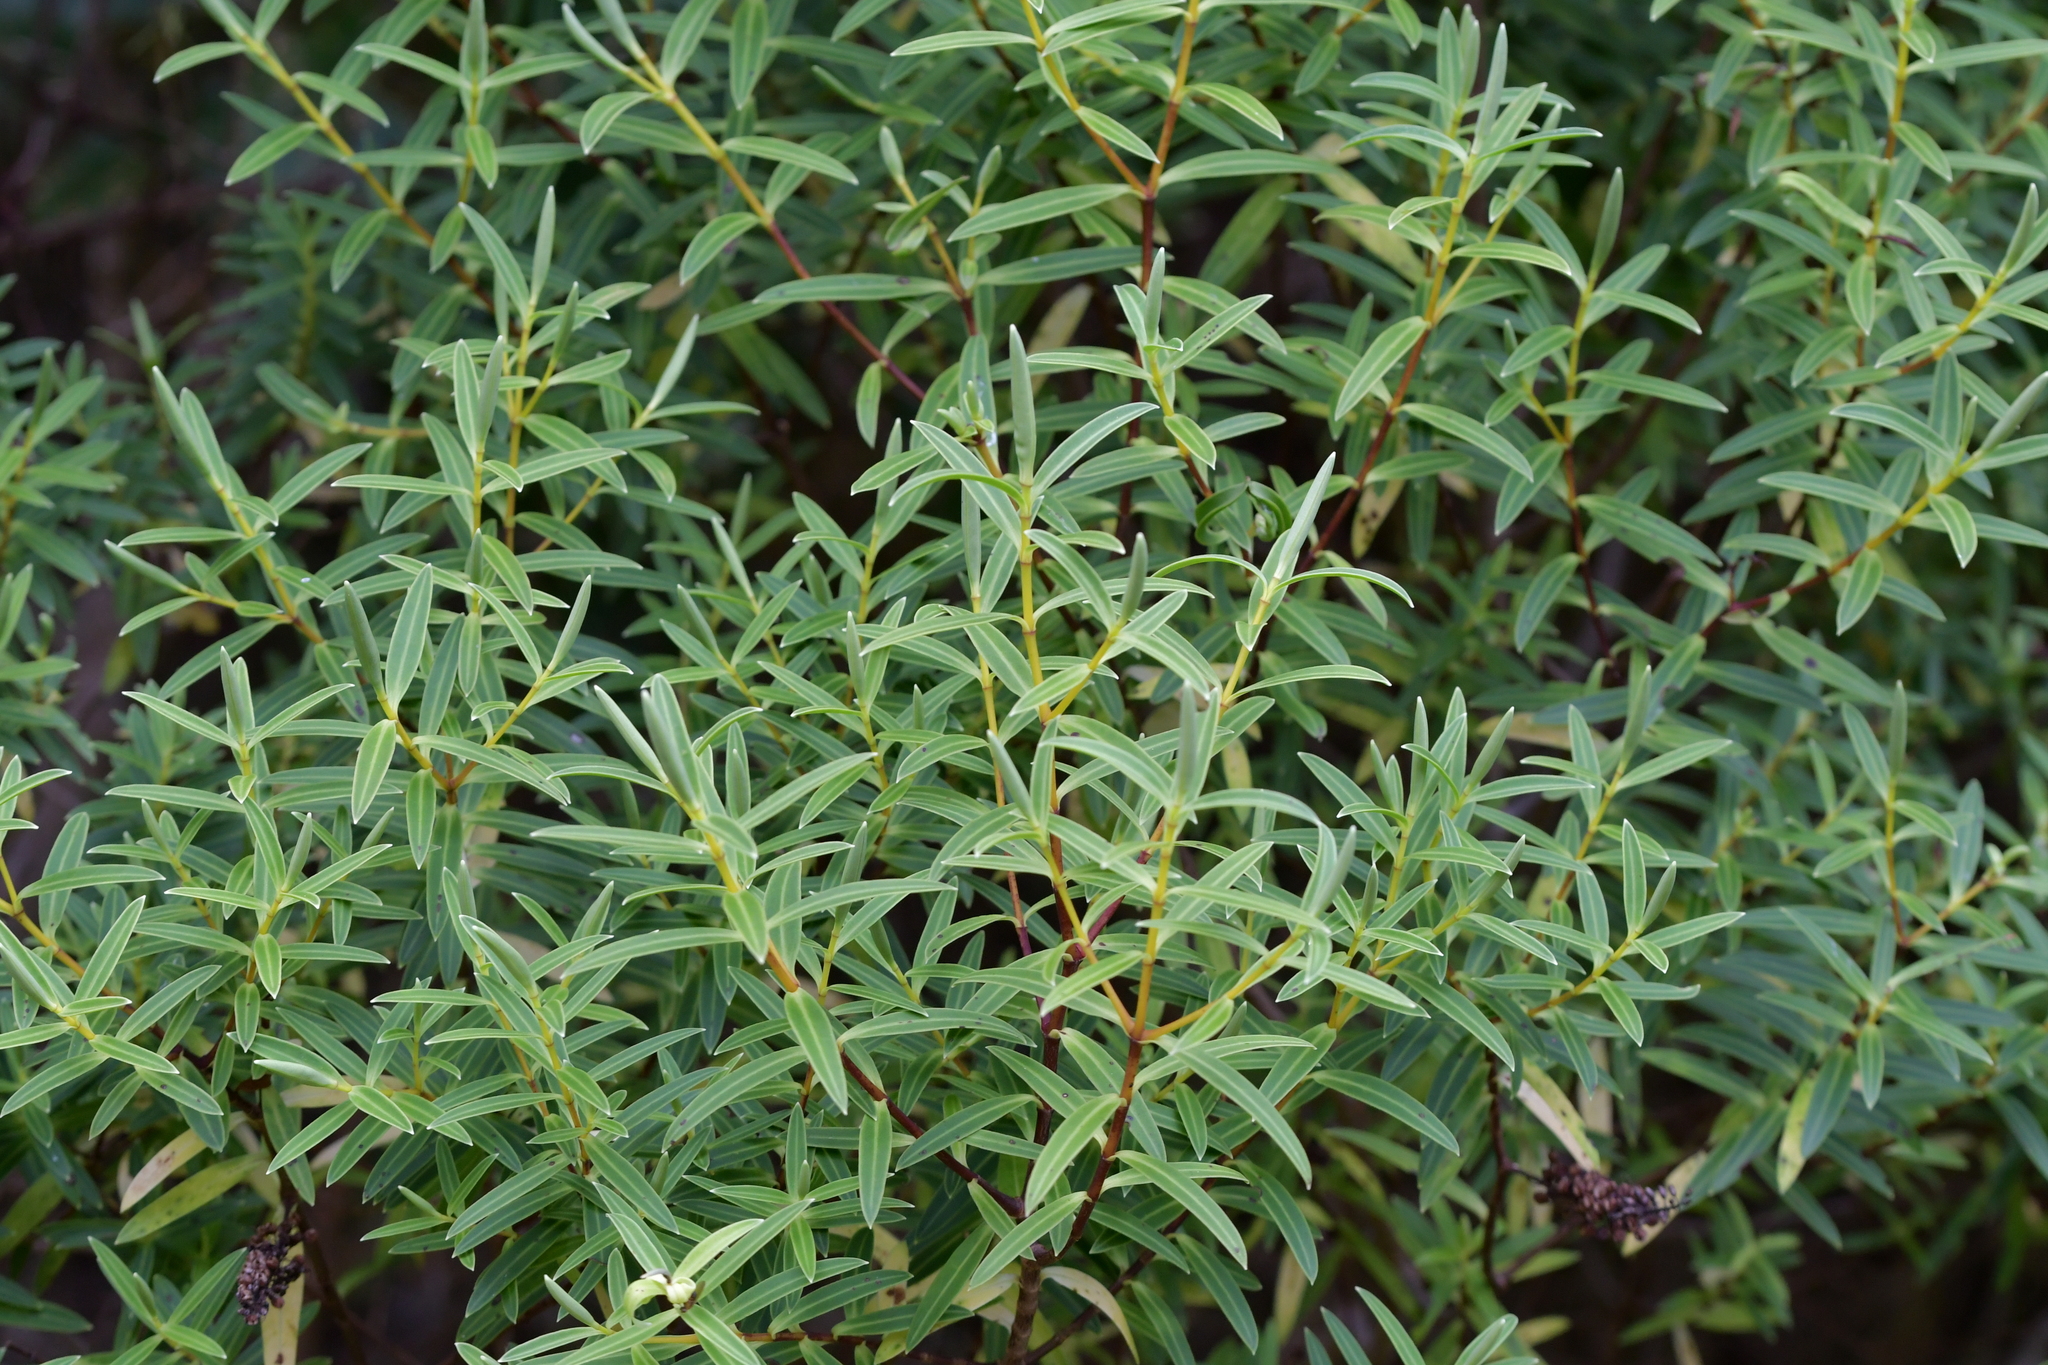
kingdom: Plantae
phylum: Tracheophyta
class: Magnoliopsida
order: Lamiales
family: Plantaginaceae
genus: Veronica
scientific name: Veronica parviflora
